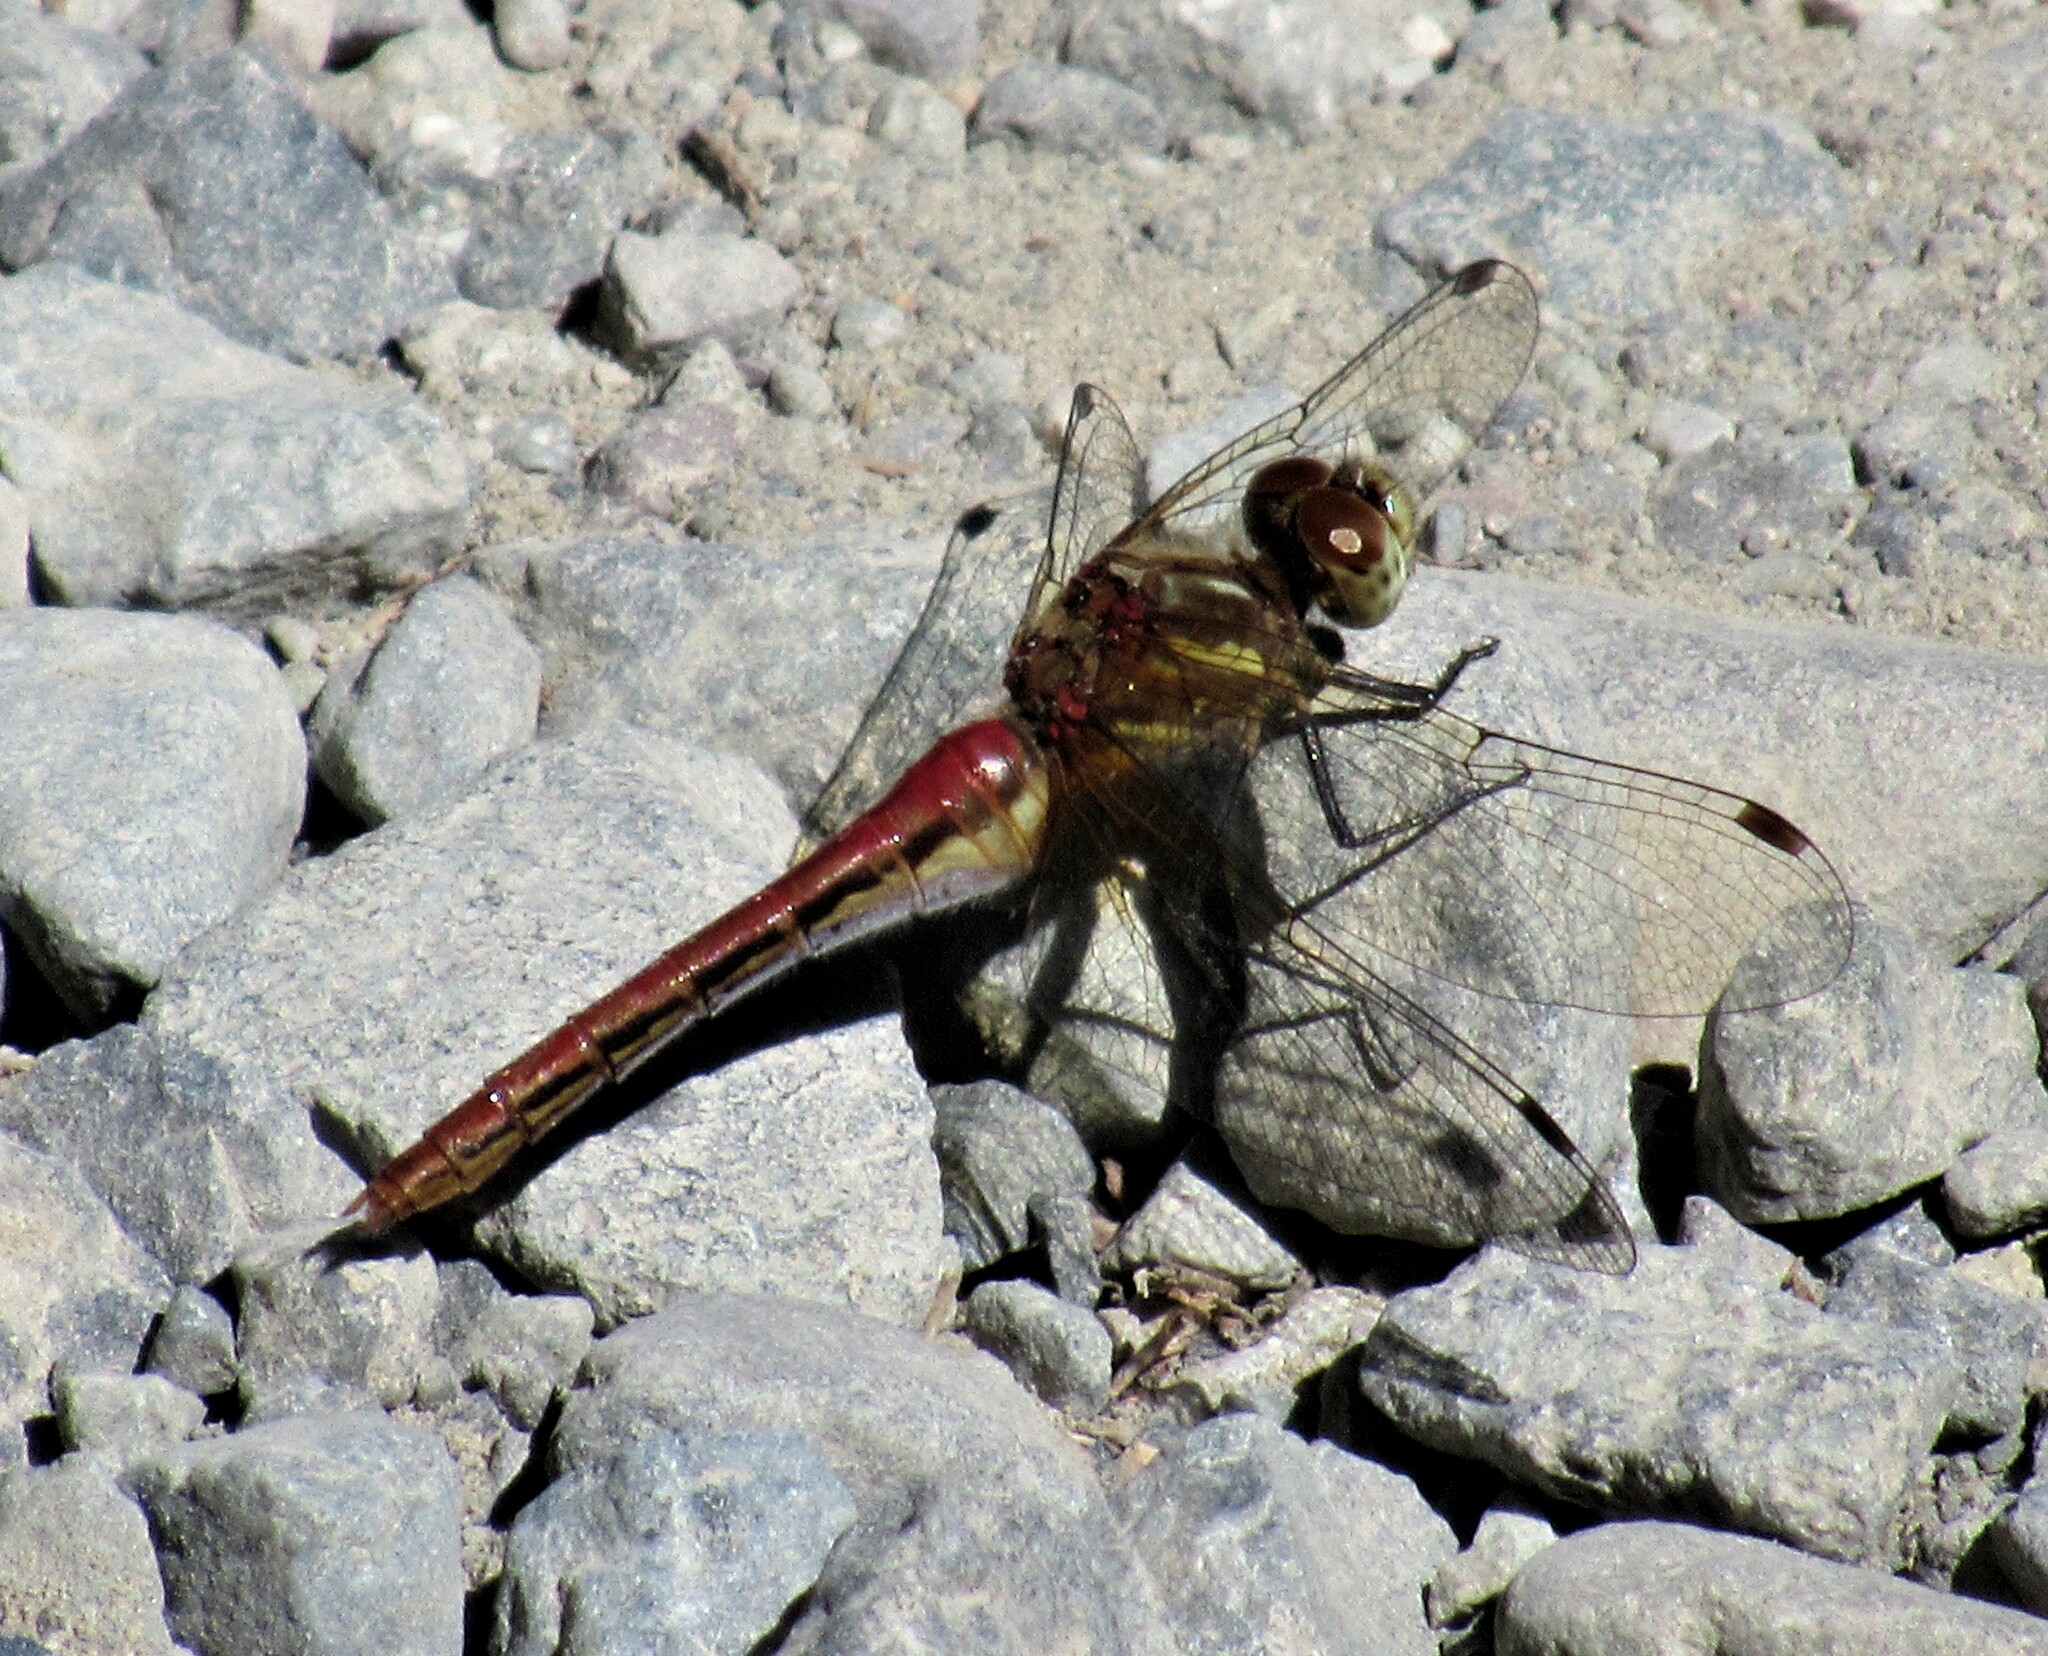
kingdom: Animalia
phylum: Arthropoda
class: Insecta
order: Odonata
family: Libellulidae
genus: Sympetrum
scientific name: Sympetrum pallipes
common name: Striped meadowhawk
